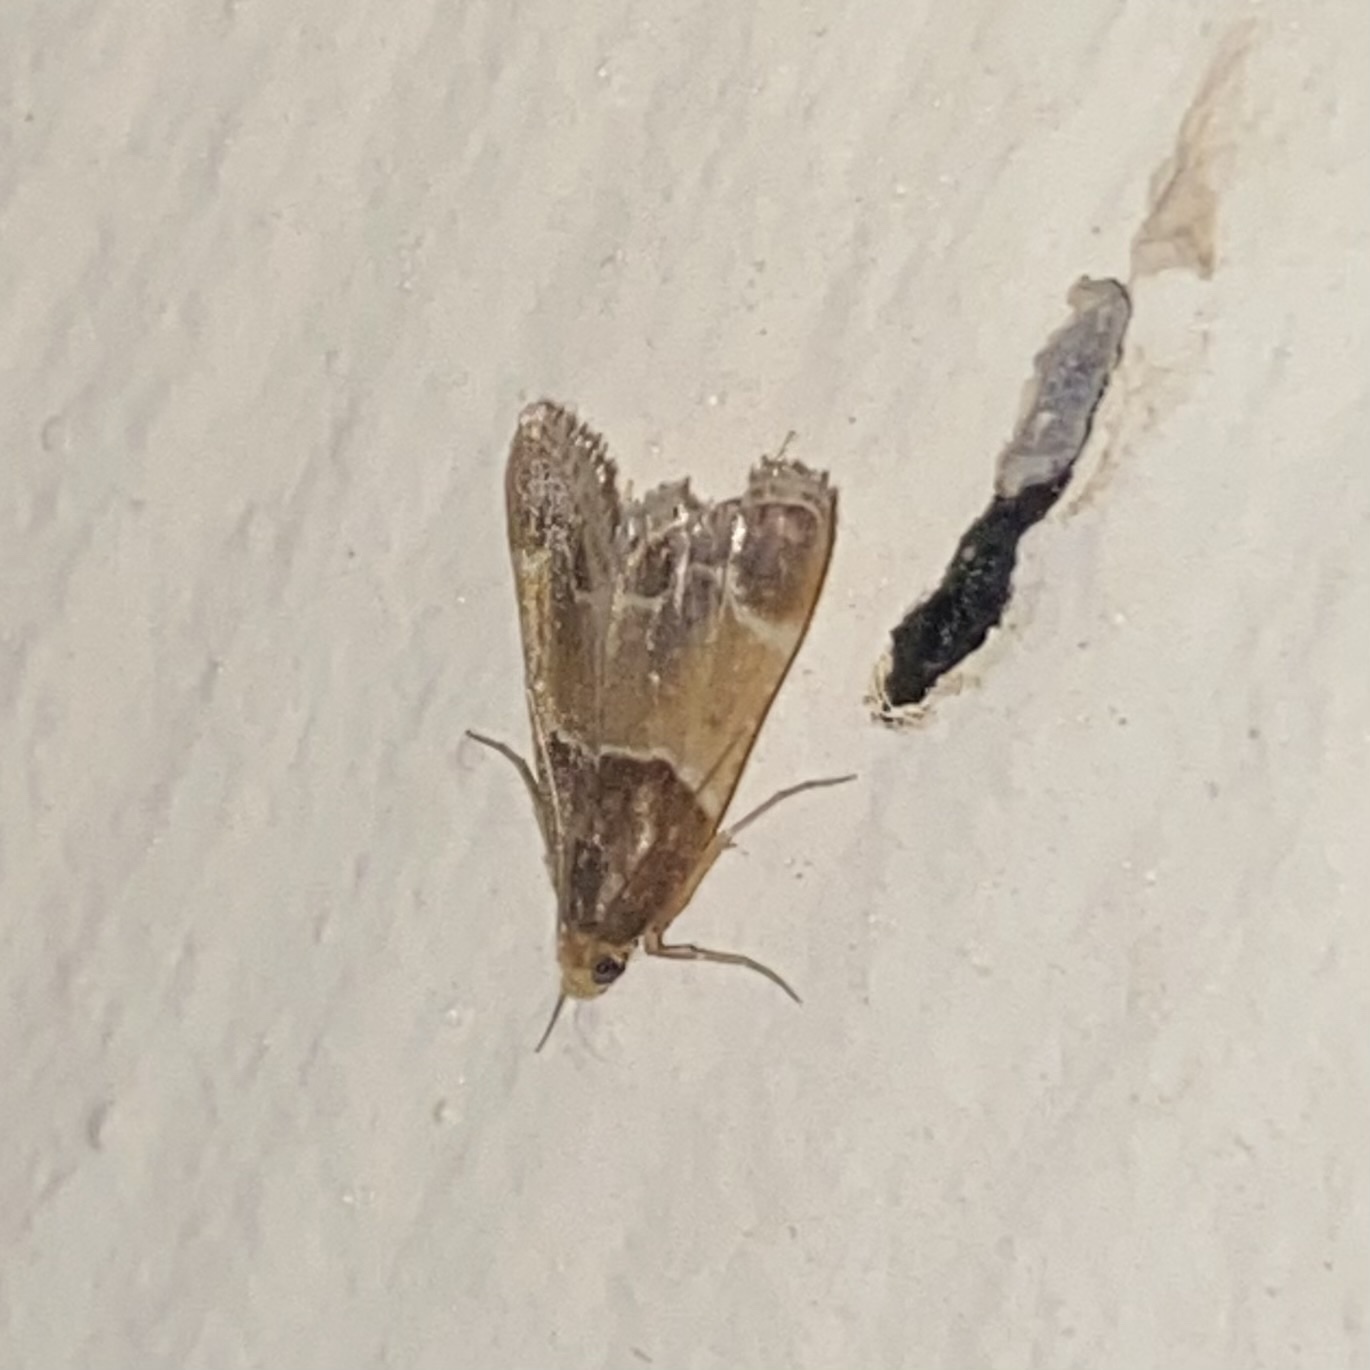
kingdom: Animalia
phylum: Arthropoda
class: Insecta
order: Lepidoptera
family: Pyralidae
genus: Pyralis
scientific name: Pyralis farinalis
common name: Meal moth
